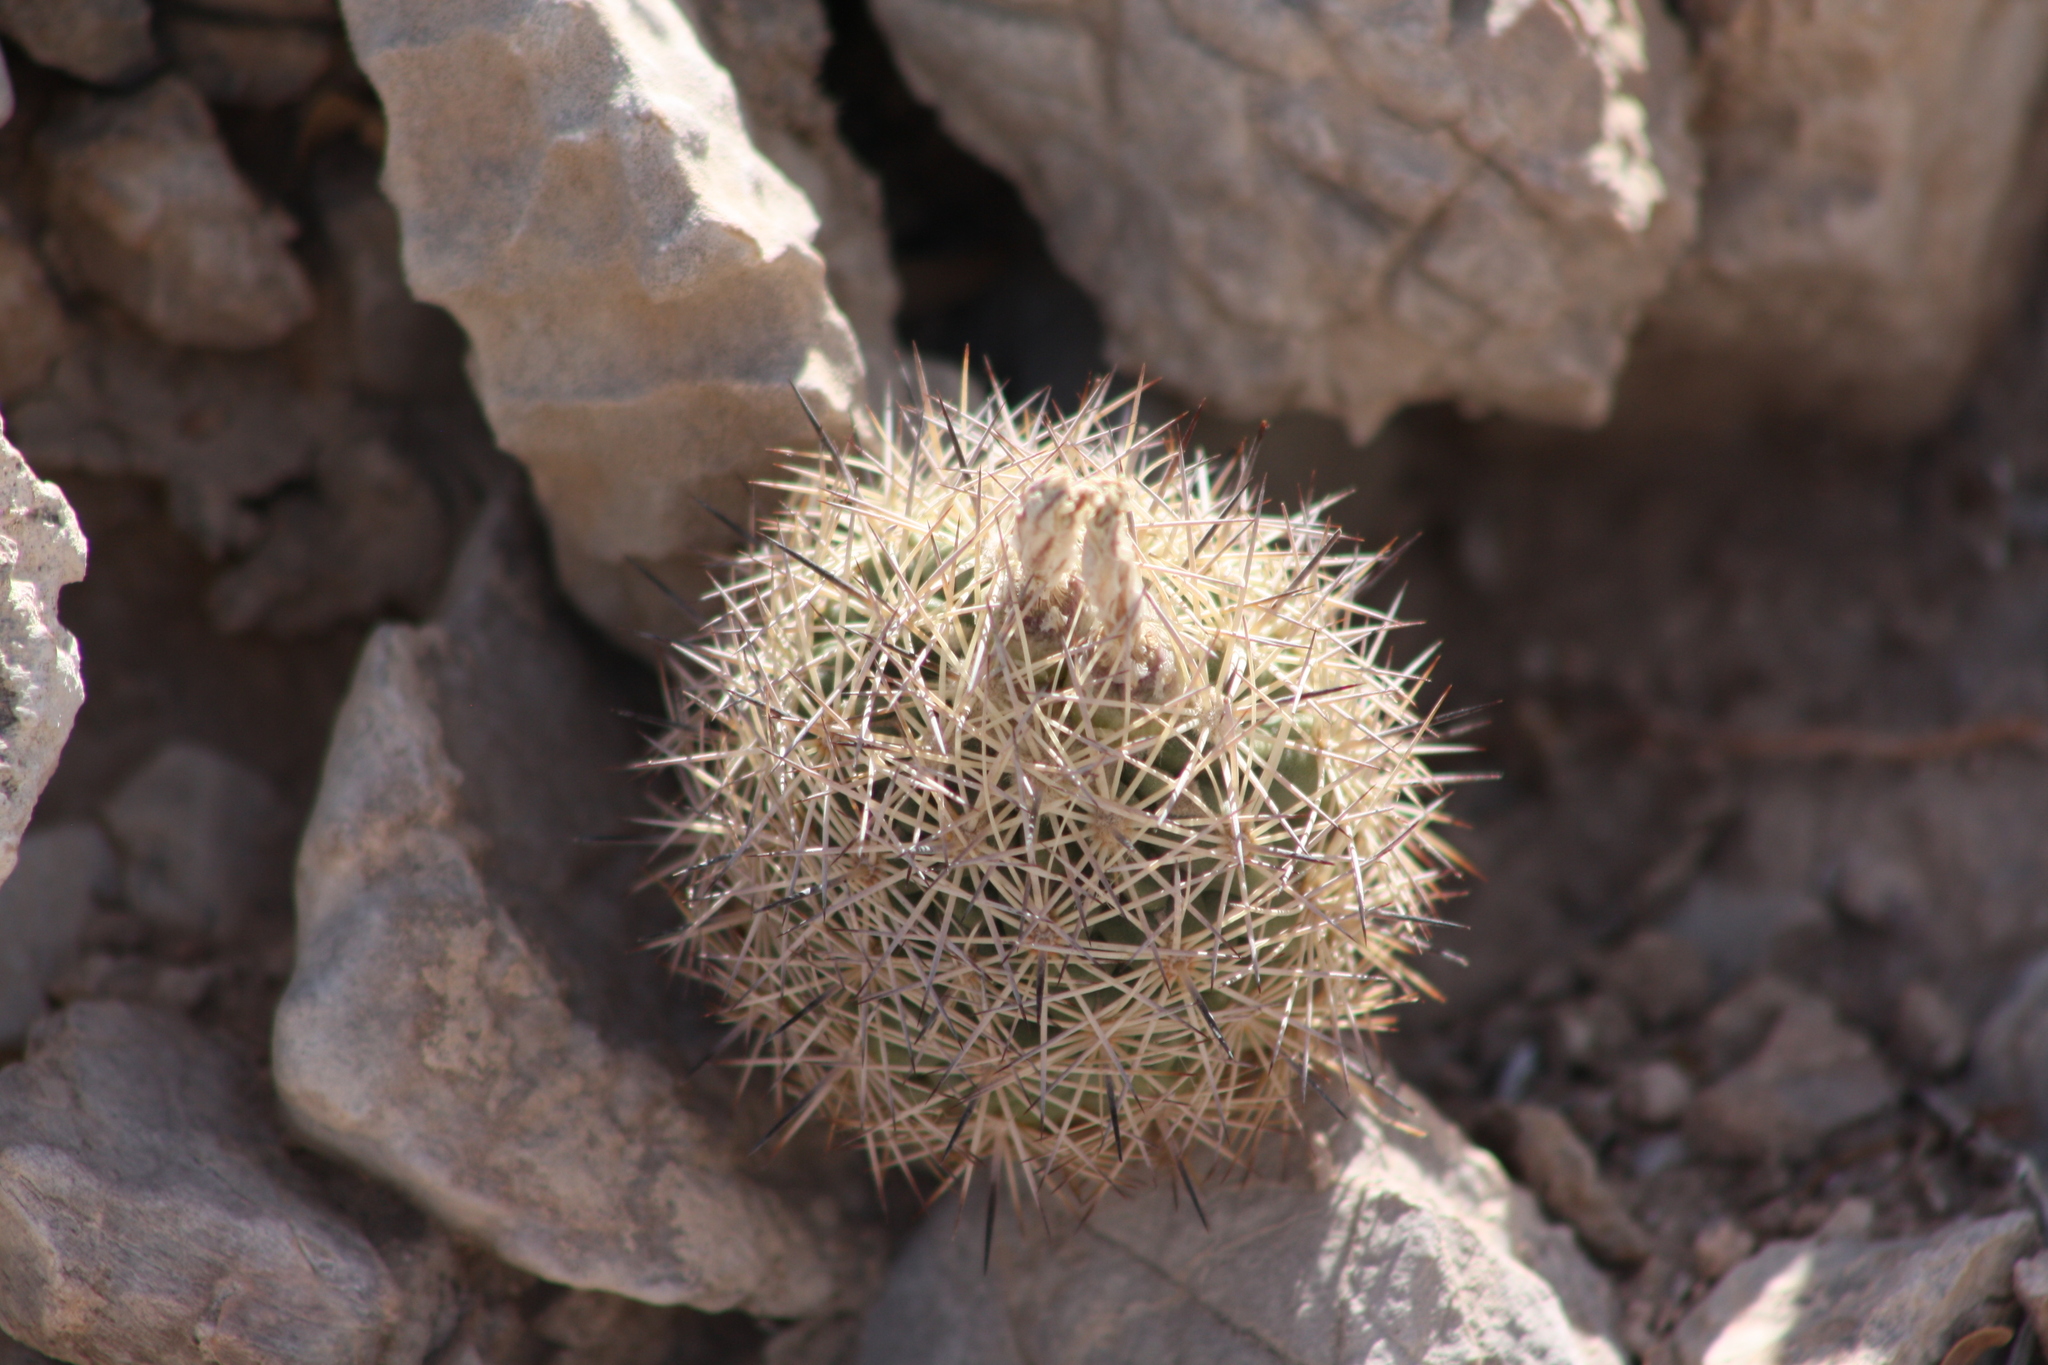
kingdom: Plantae
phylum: Tracheophyta
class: Magnoliopsida
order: Caryophyllales
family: Cactaceae
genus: Sclerocactus
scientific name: Sclerocactus warnockii
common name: Pineapple cactus
